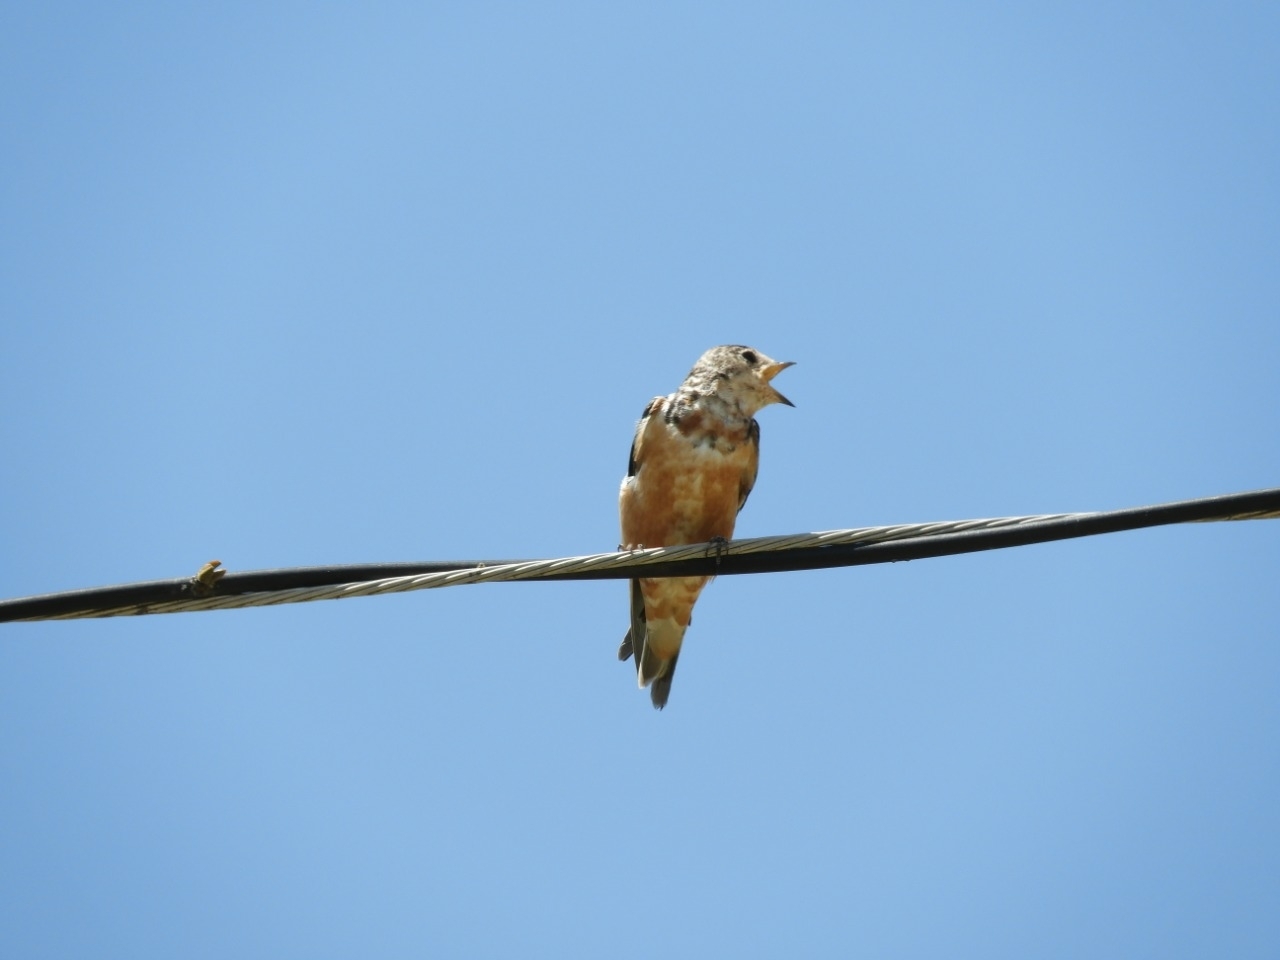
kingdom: Animalia
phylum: Chordata
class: Aves
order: Passeriformes
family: Hirundinidae
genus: Hirundo
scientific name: Hirundo rustica
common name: Barn swallow
